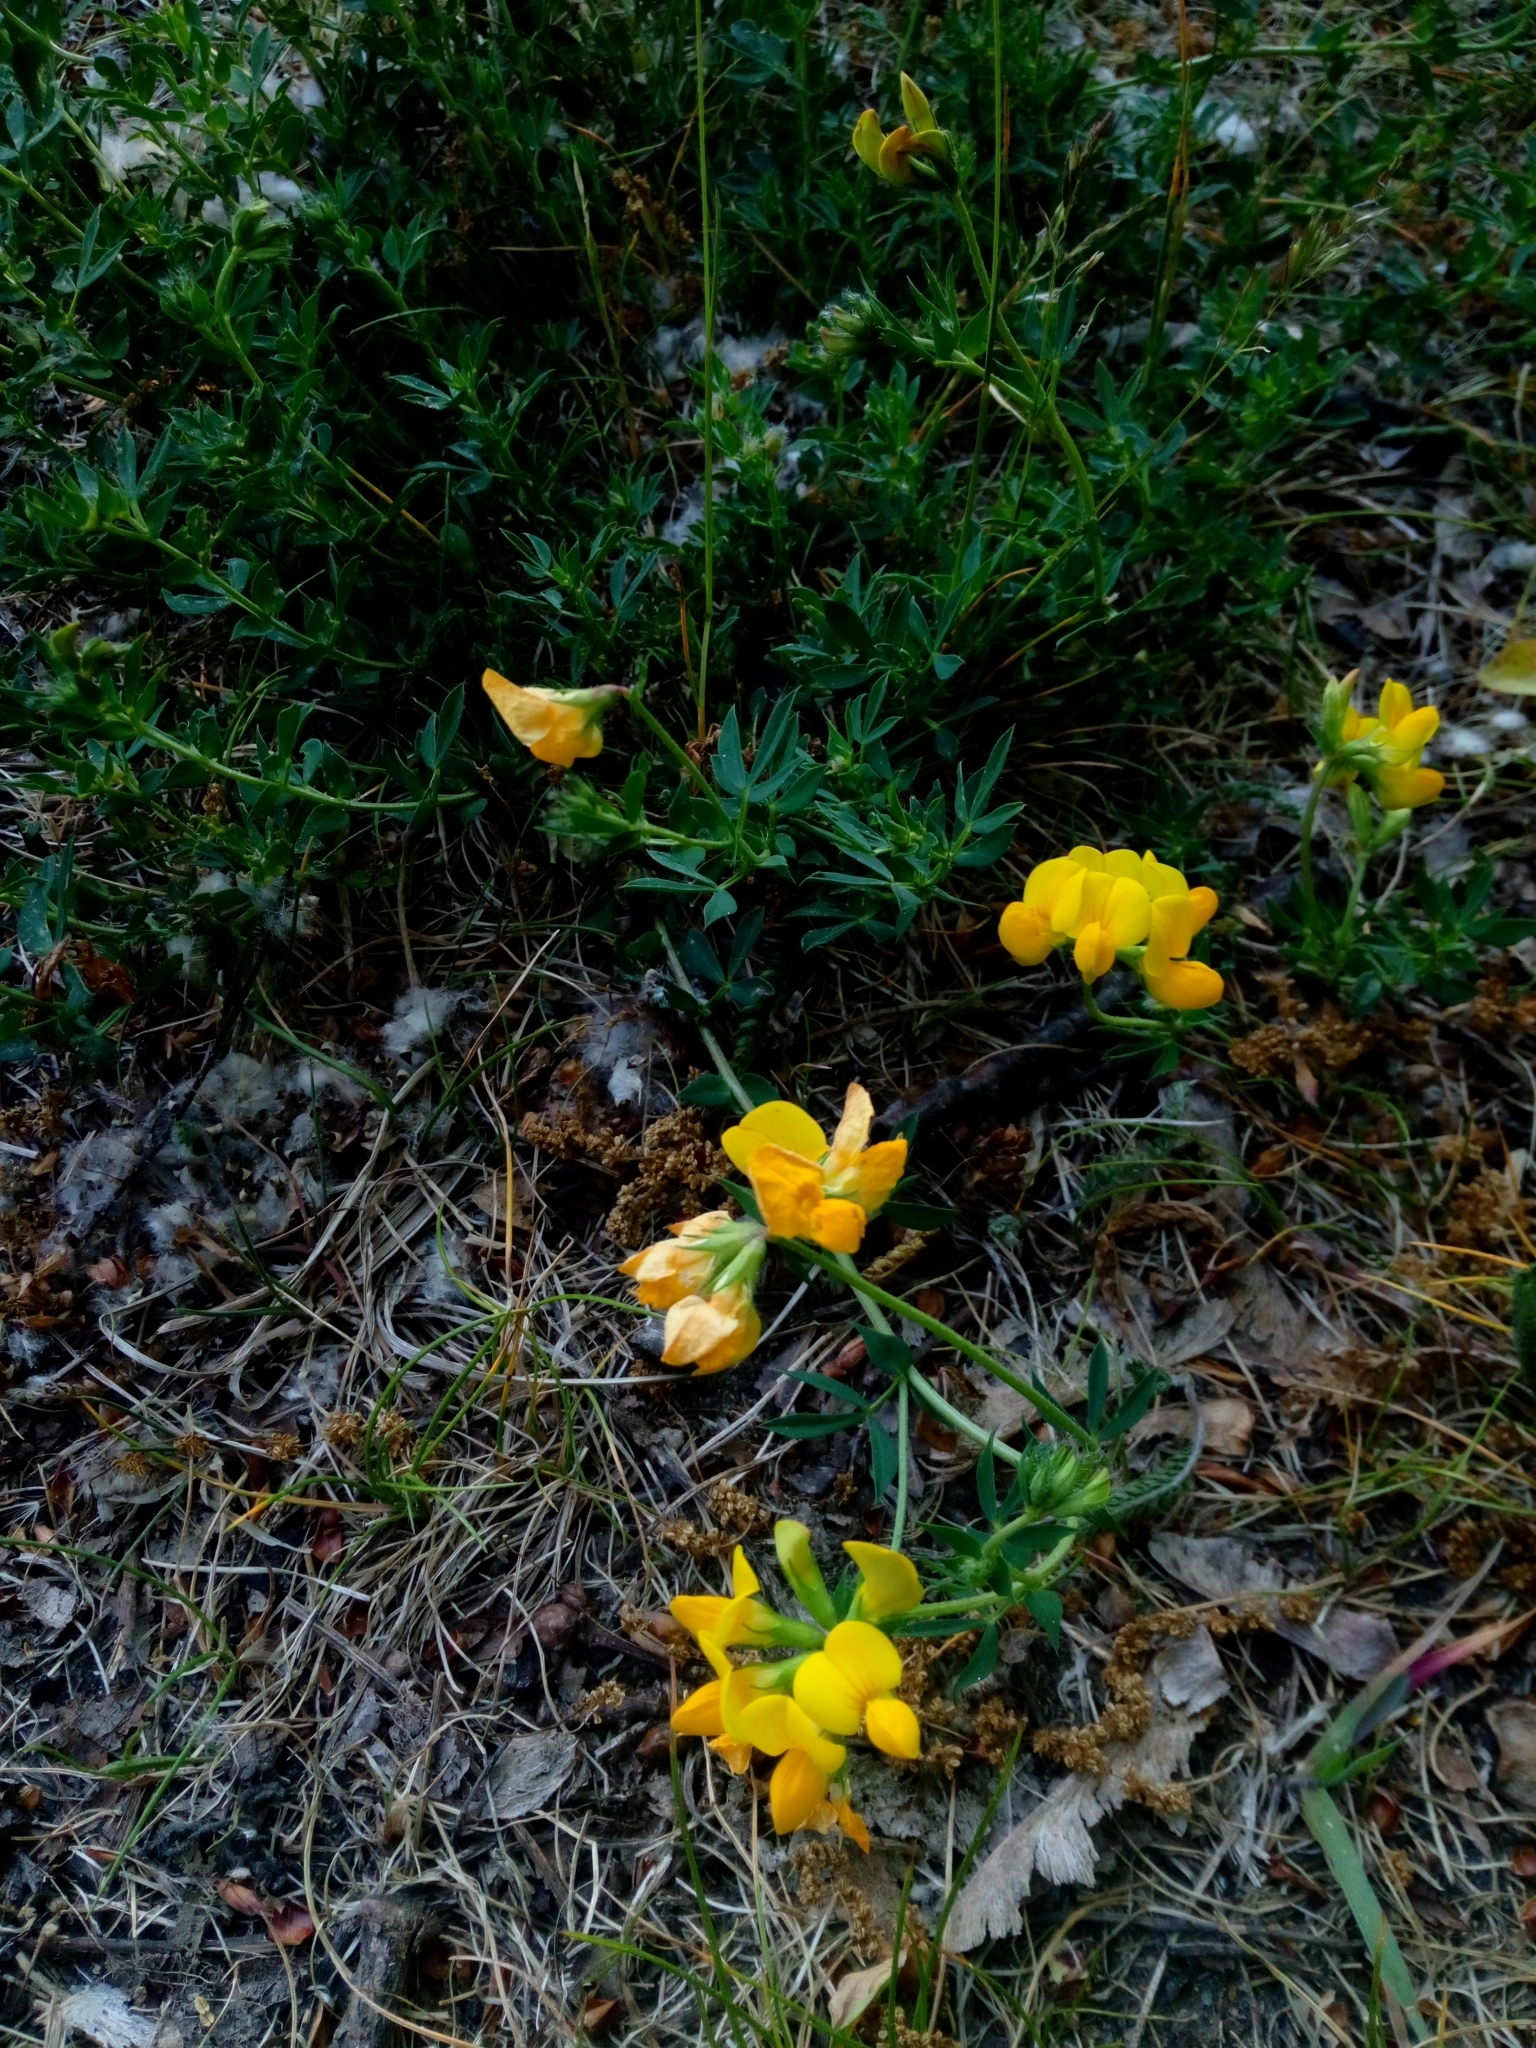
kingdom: Plantae
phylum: Tracheophyta
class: Magnoliopsida
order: Fabales
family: Fabaceae
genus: Lotus
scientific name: Lotus corniculatus
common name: Common bird's-foot-trefoil
